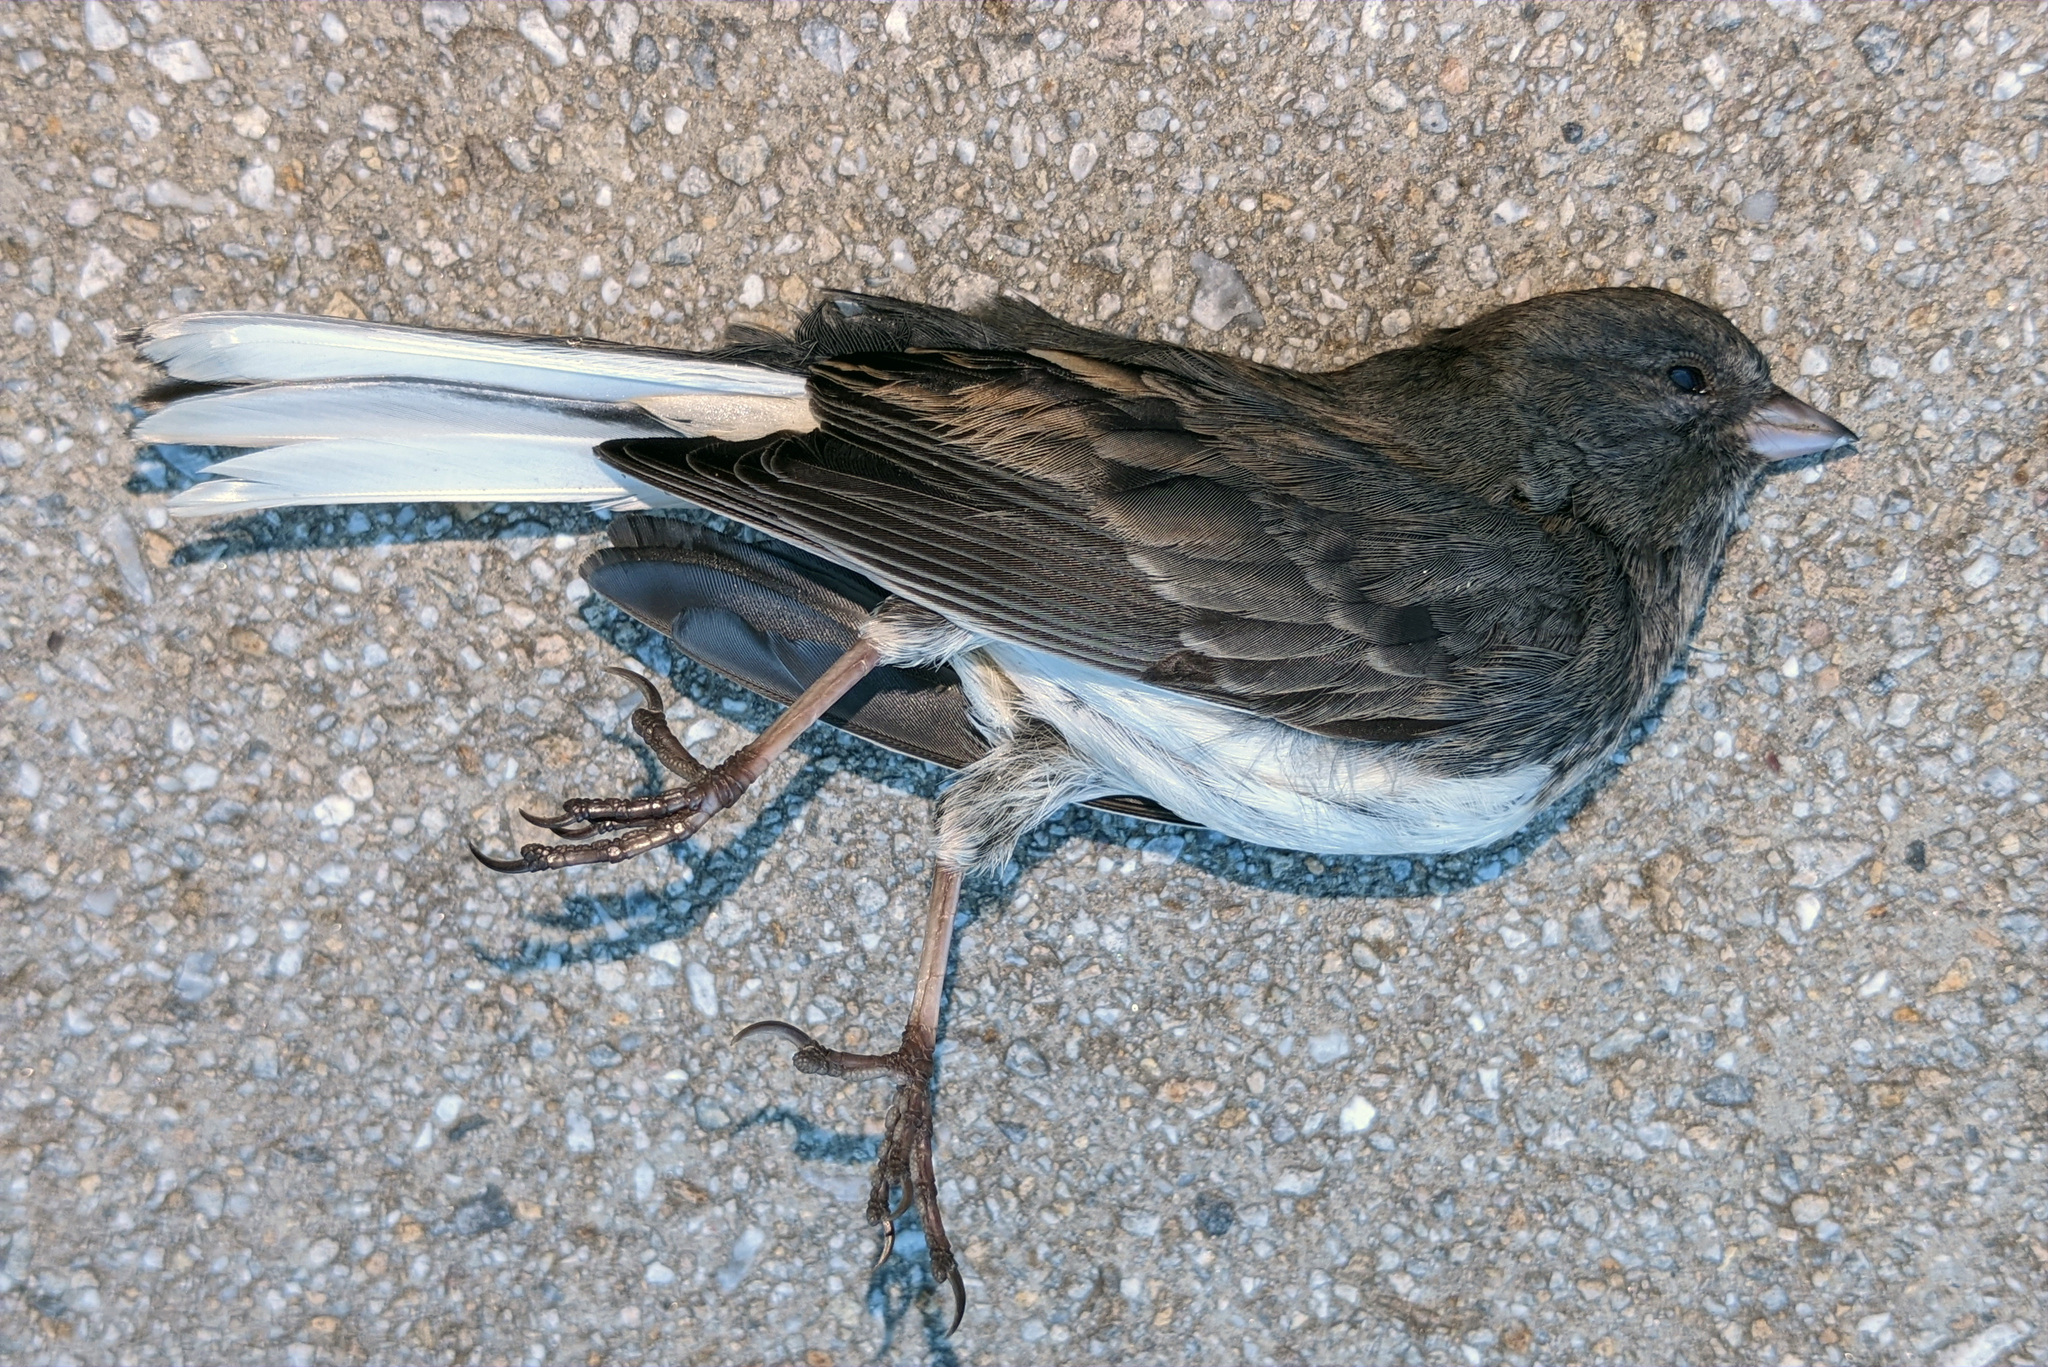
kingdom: Animalia
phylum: Chordata
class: Aves
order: Passeriformes
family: Passerellidae
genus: Junco
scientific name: Junco hyemalis
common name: Dark-eyed junco
